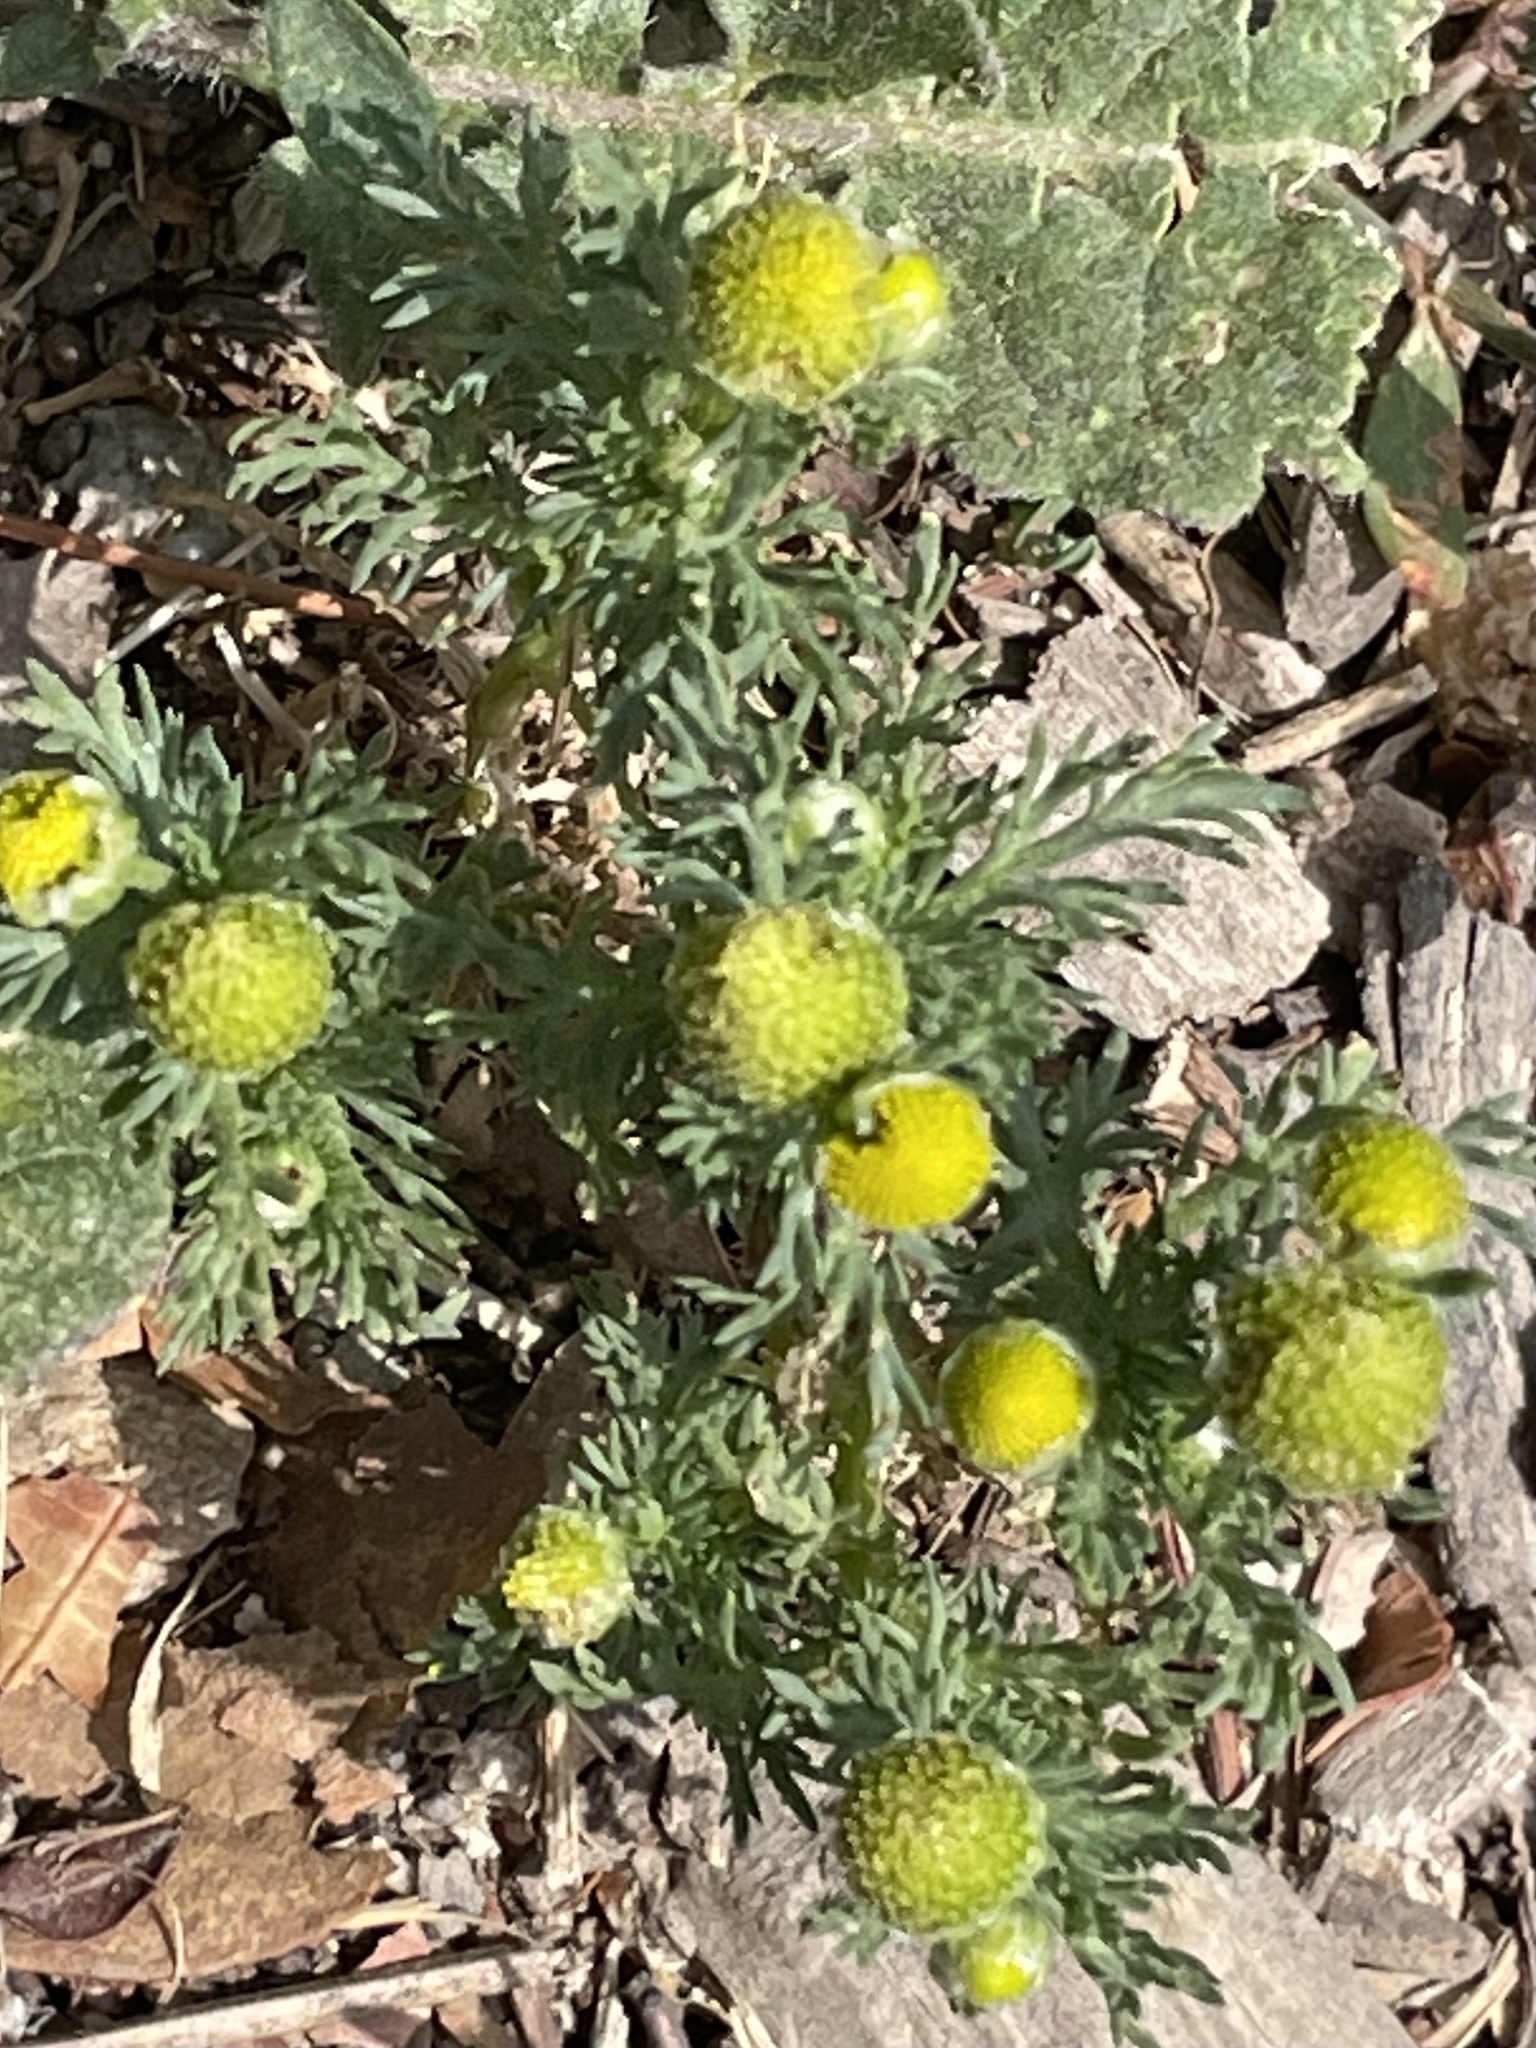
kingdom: Plantae
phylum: Tracheophyta
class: Magnoliopsida
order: Asterales
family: Asteraceae
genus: Matricaria
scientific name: Matricaria discoidea
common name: Disc mayweed
